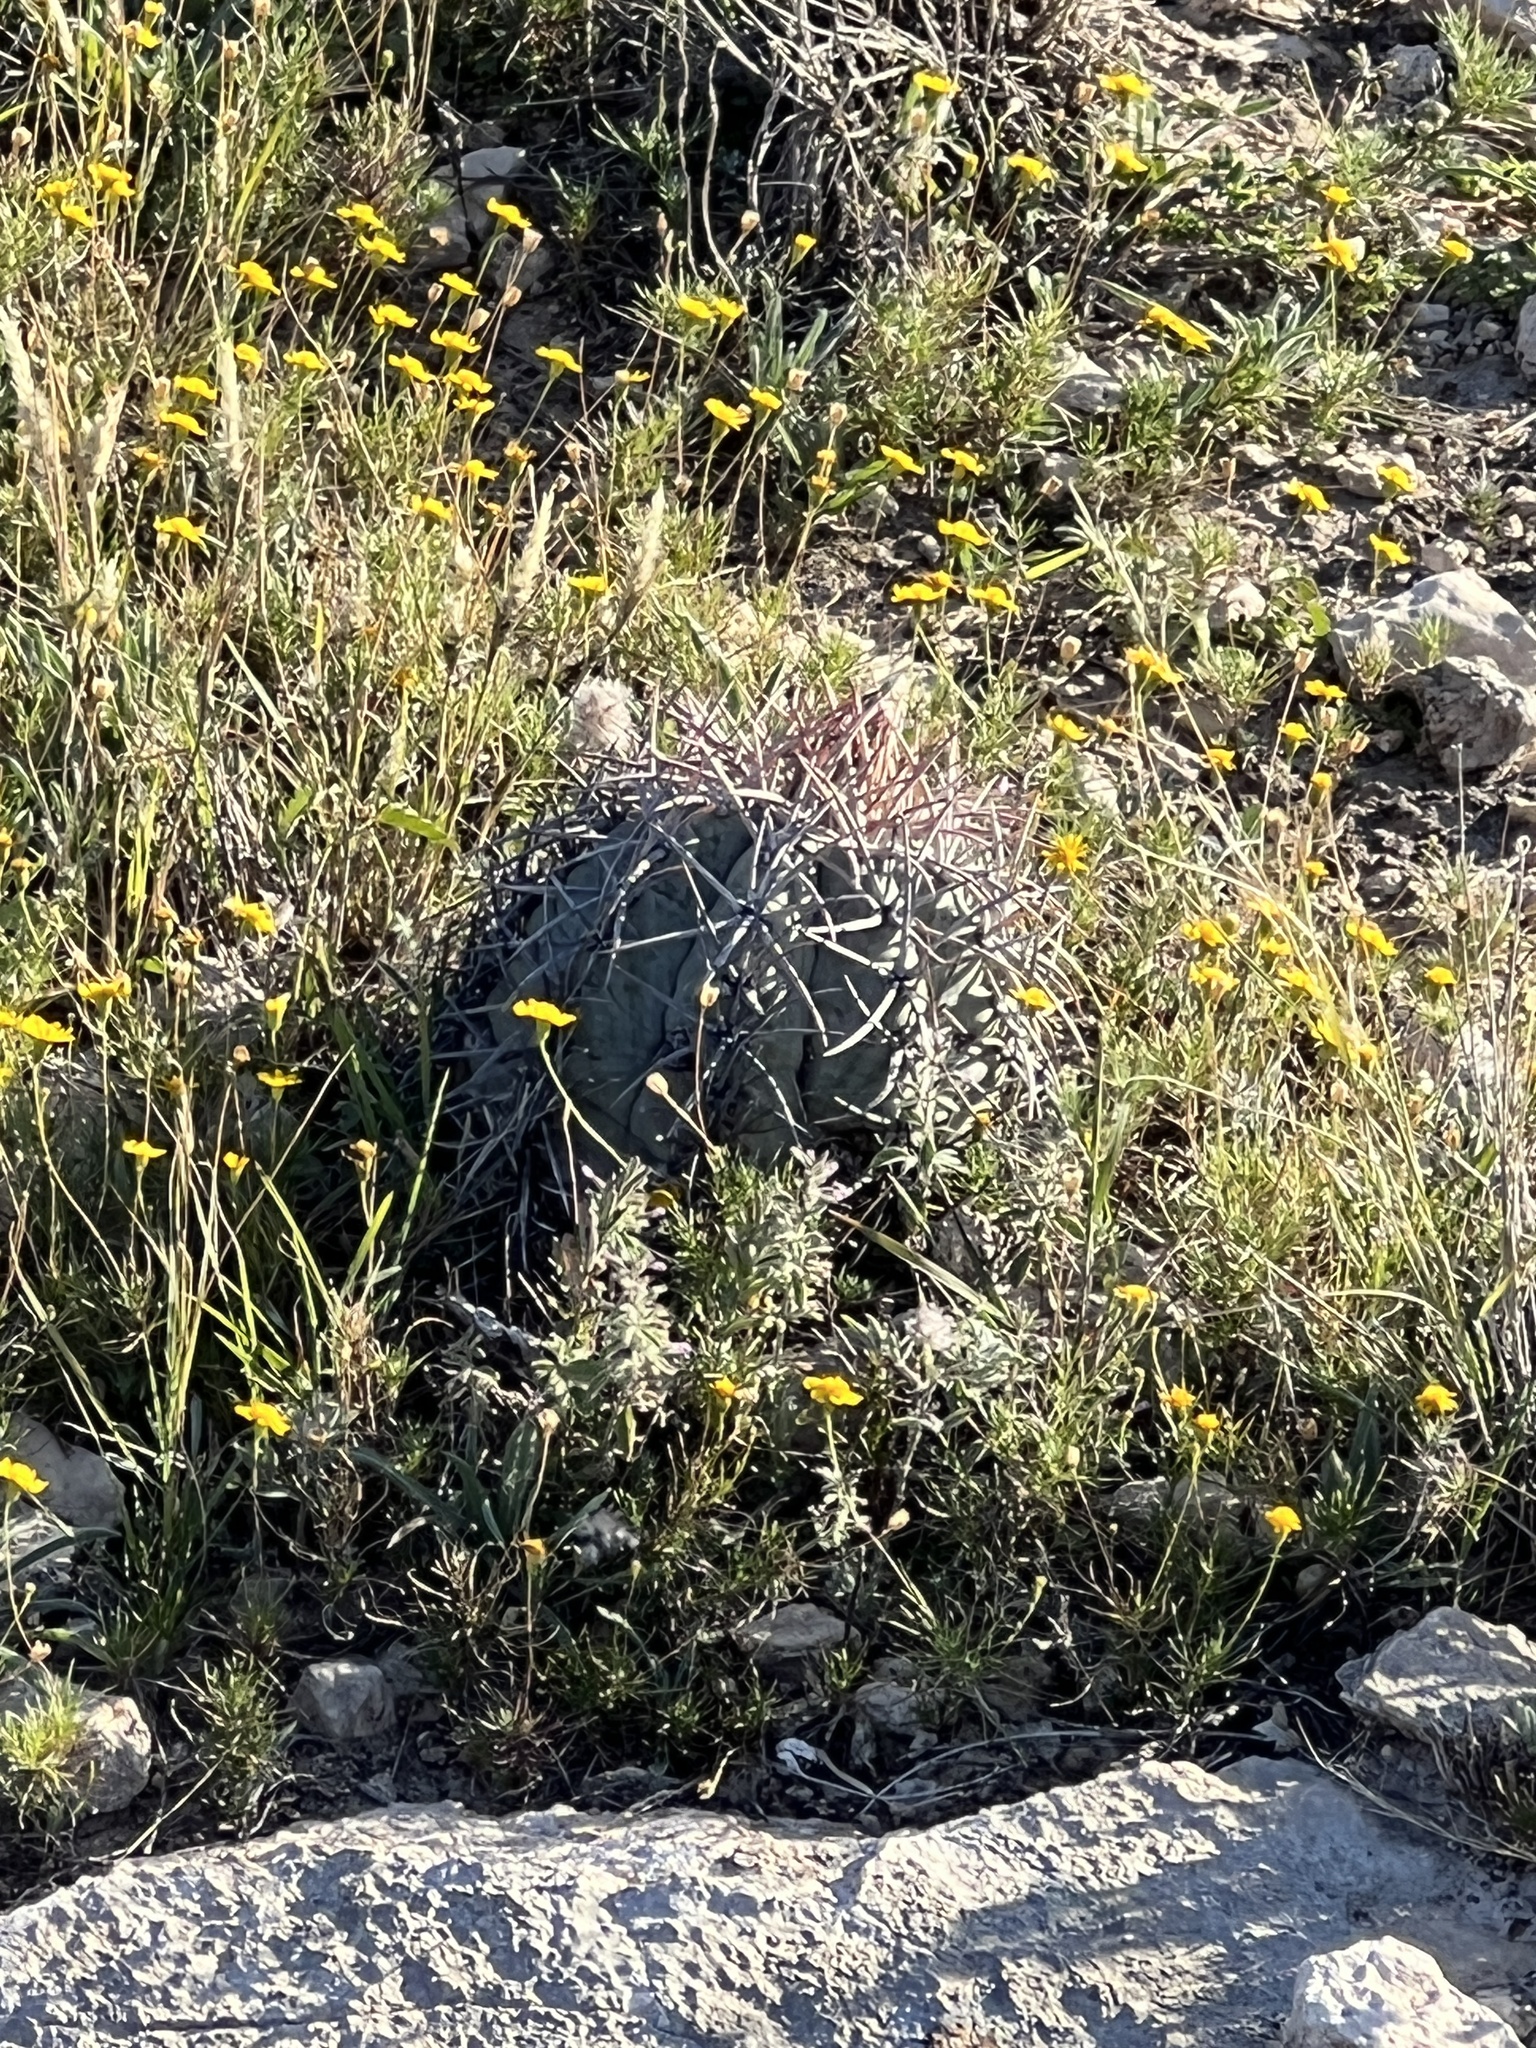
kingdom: Plantae
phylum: Tracheophyta
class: Magnoliopsida
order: Caryophyllales
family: Cactaceae
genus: Echinocactus
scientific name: Echinocactus horizonthalonius
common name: Devilshead
